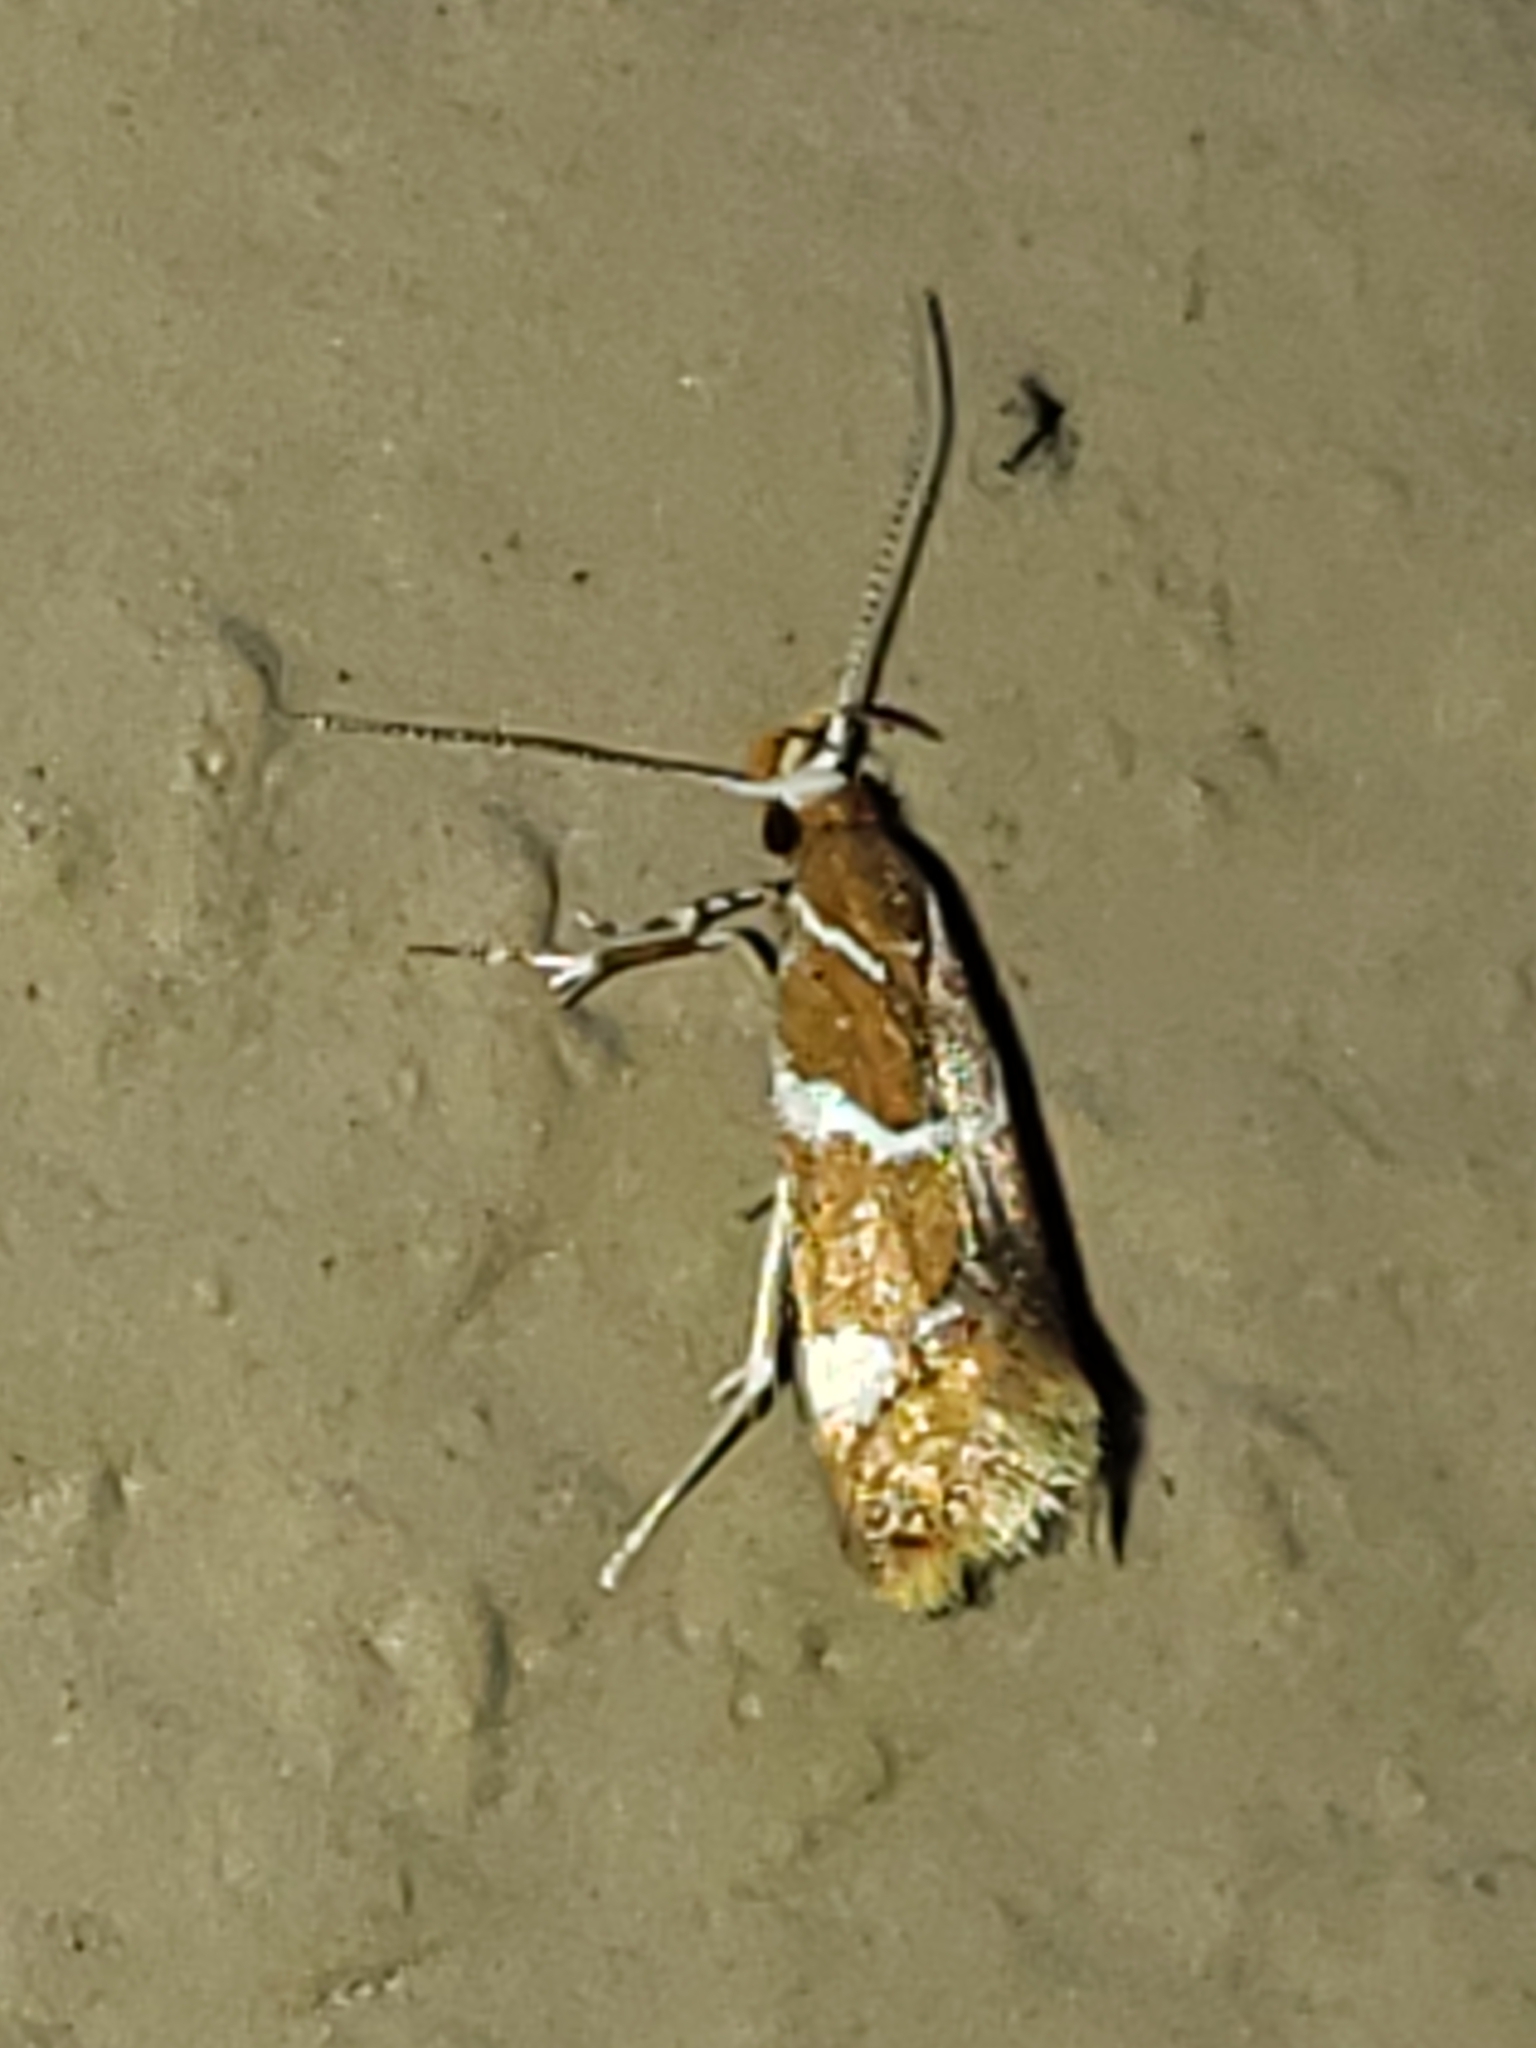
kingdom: Animalia
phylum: Arthropoda
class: Insecta
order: Lepidoptera
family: Oecophoridae
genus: Promalactis
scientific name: Promalactis suzukiella
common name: Moth
